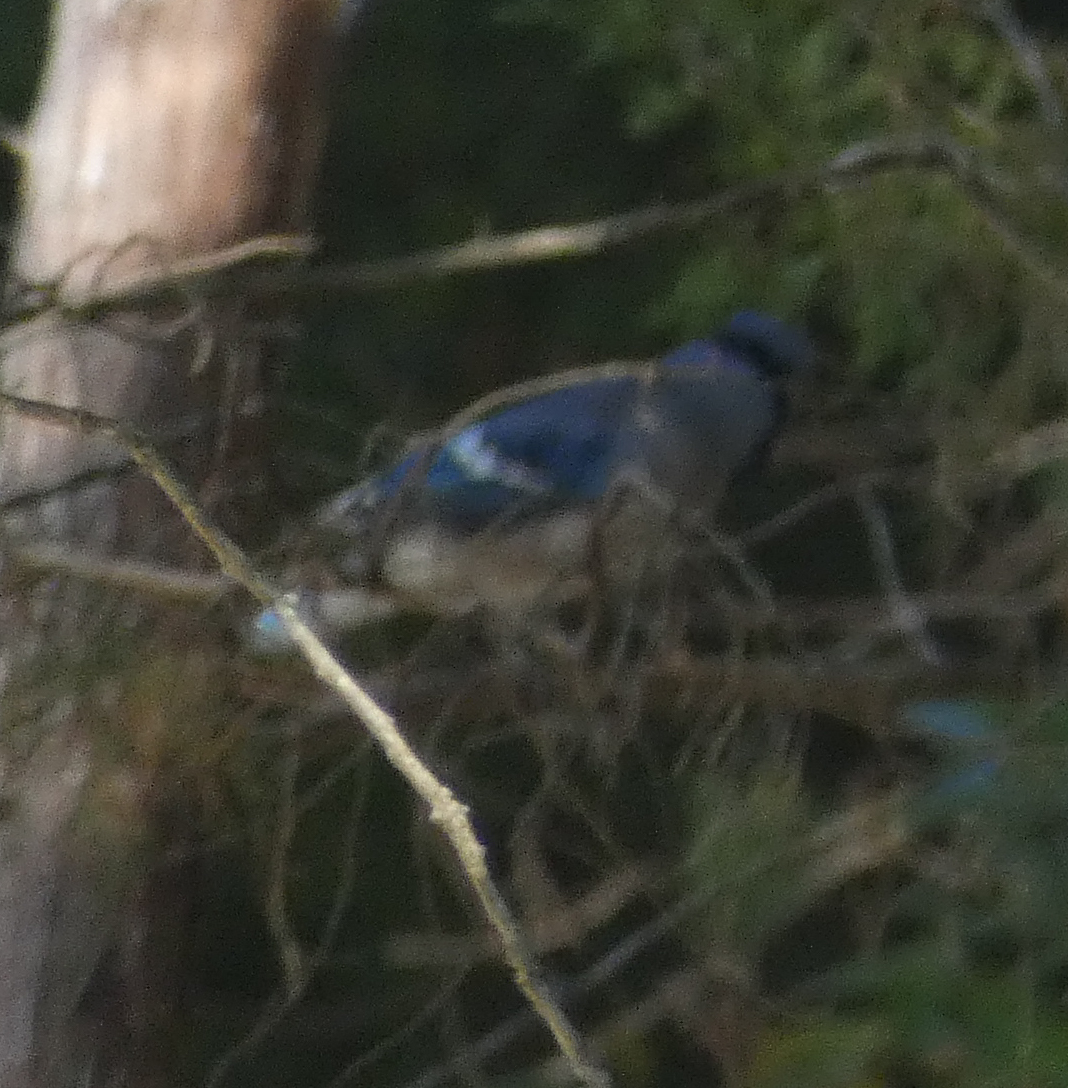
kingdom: Animalia
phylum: Chordata
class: Aves
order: Passeriformes
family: Corvidae
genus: Cyanocitta
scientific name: Cyanocitta cristata
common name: Blue jay
